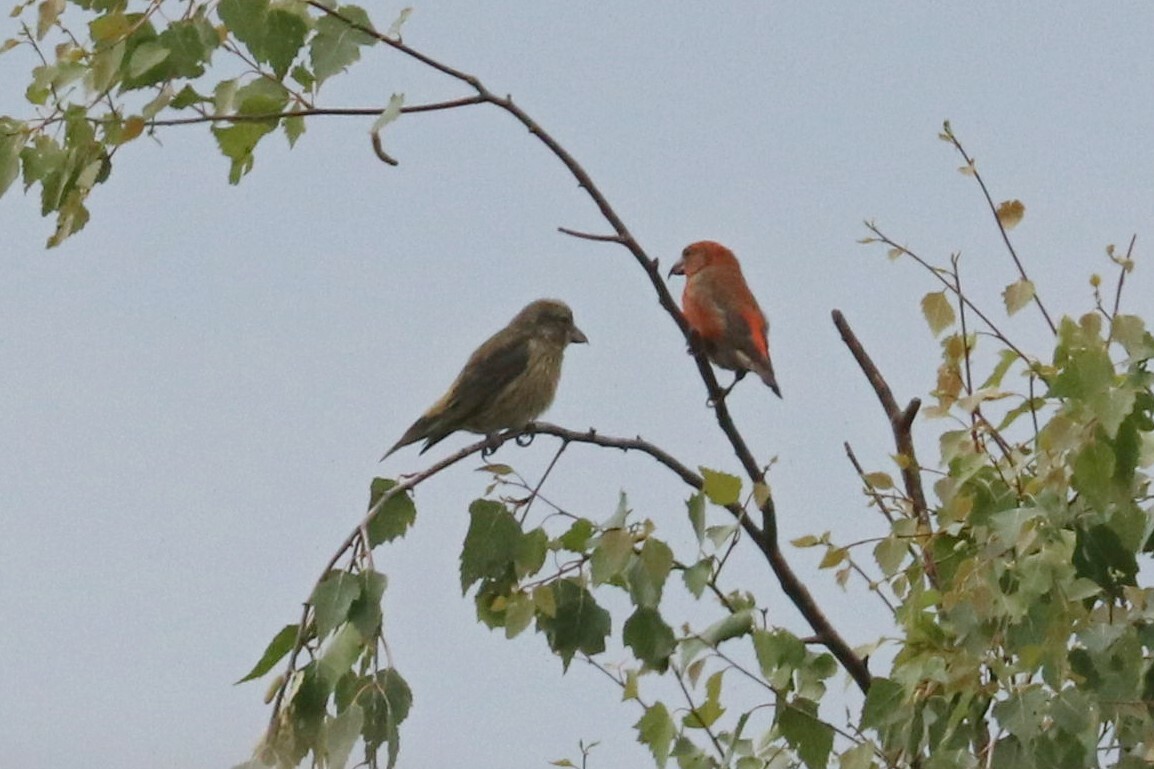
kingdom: Animalia
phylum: Chordata
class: Aves
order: Passeriformes
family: Fringillidae
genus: Loxia
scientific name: Loxia curvirostra
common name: Red crossbill
